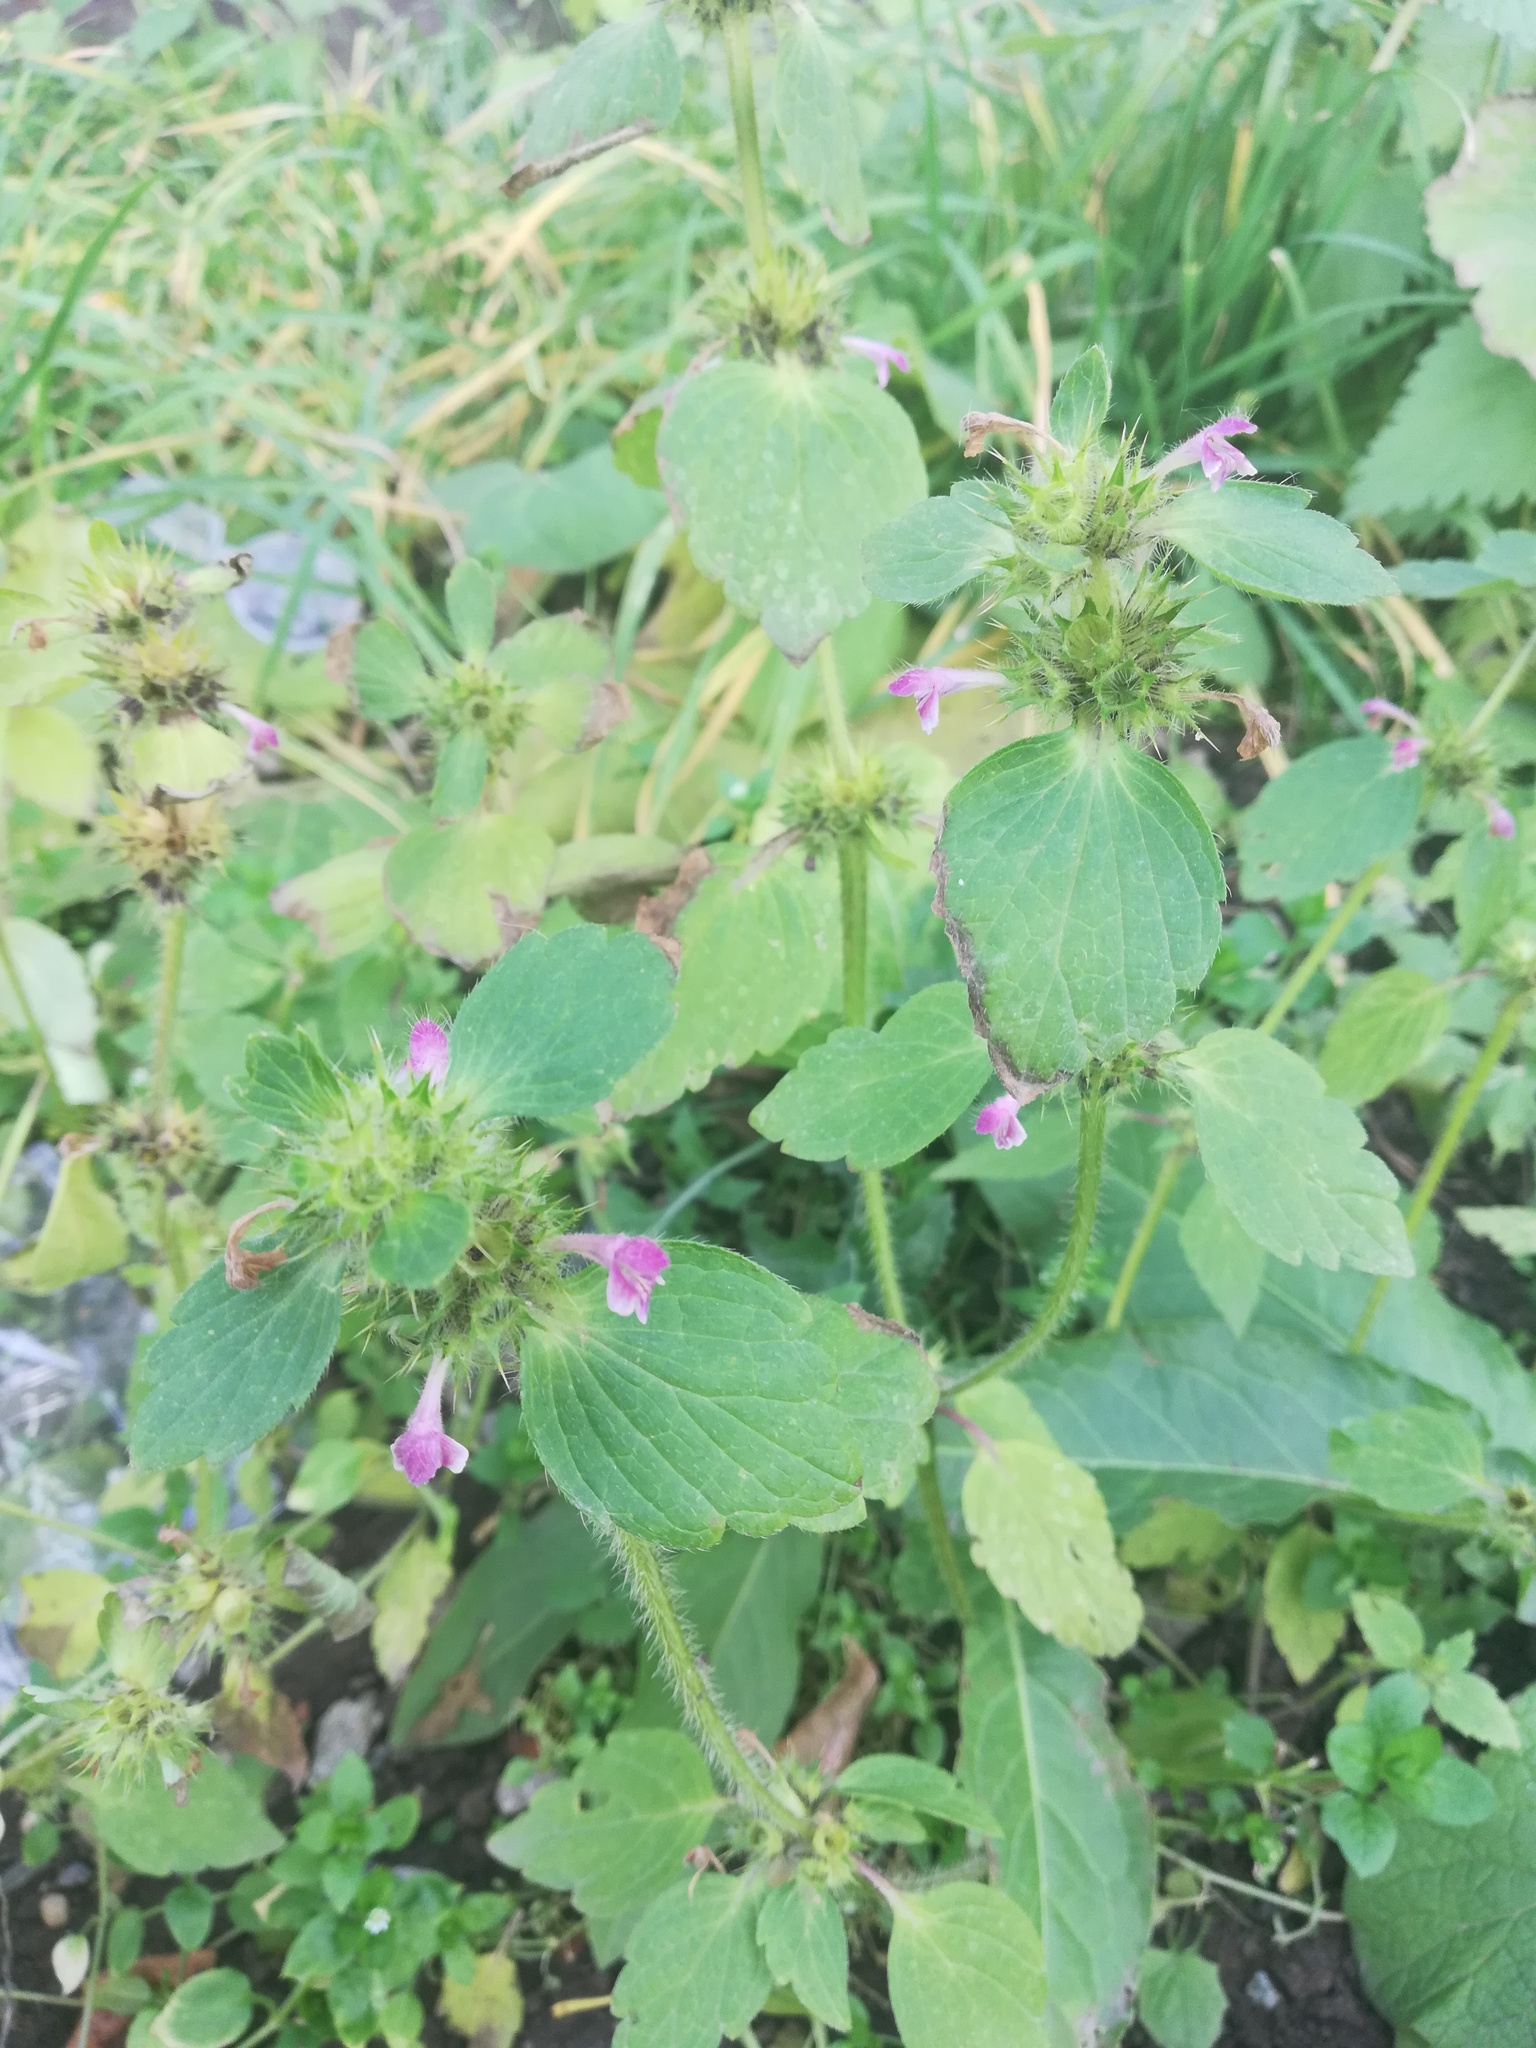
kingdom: Plantae
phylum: Tracheophyta
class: Magnoliopsida
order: Lamiales
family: Lamiaceae
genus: Galeopsis
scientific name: Galeopsis bifida
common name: Bifid hemp-nettle
